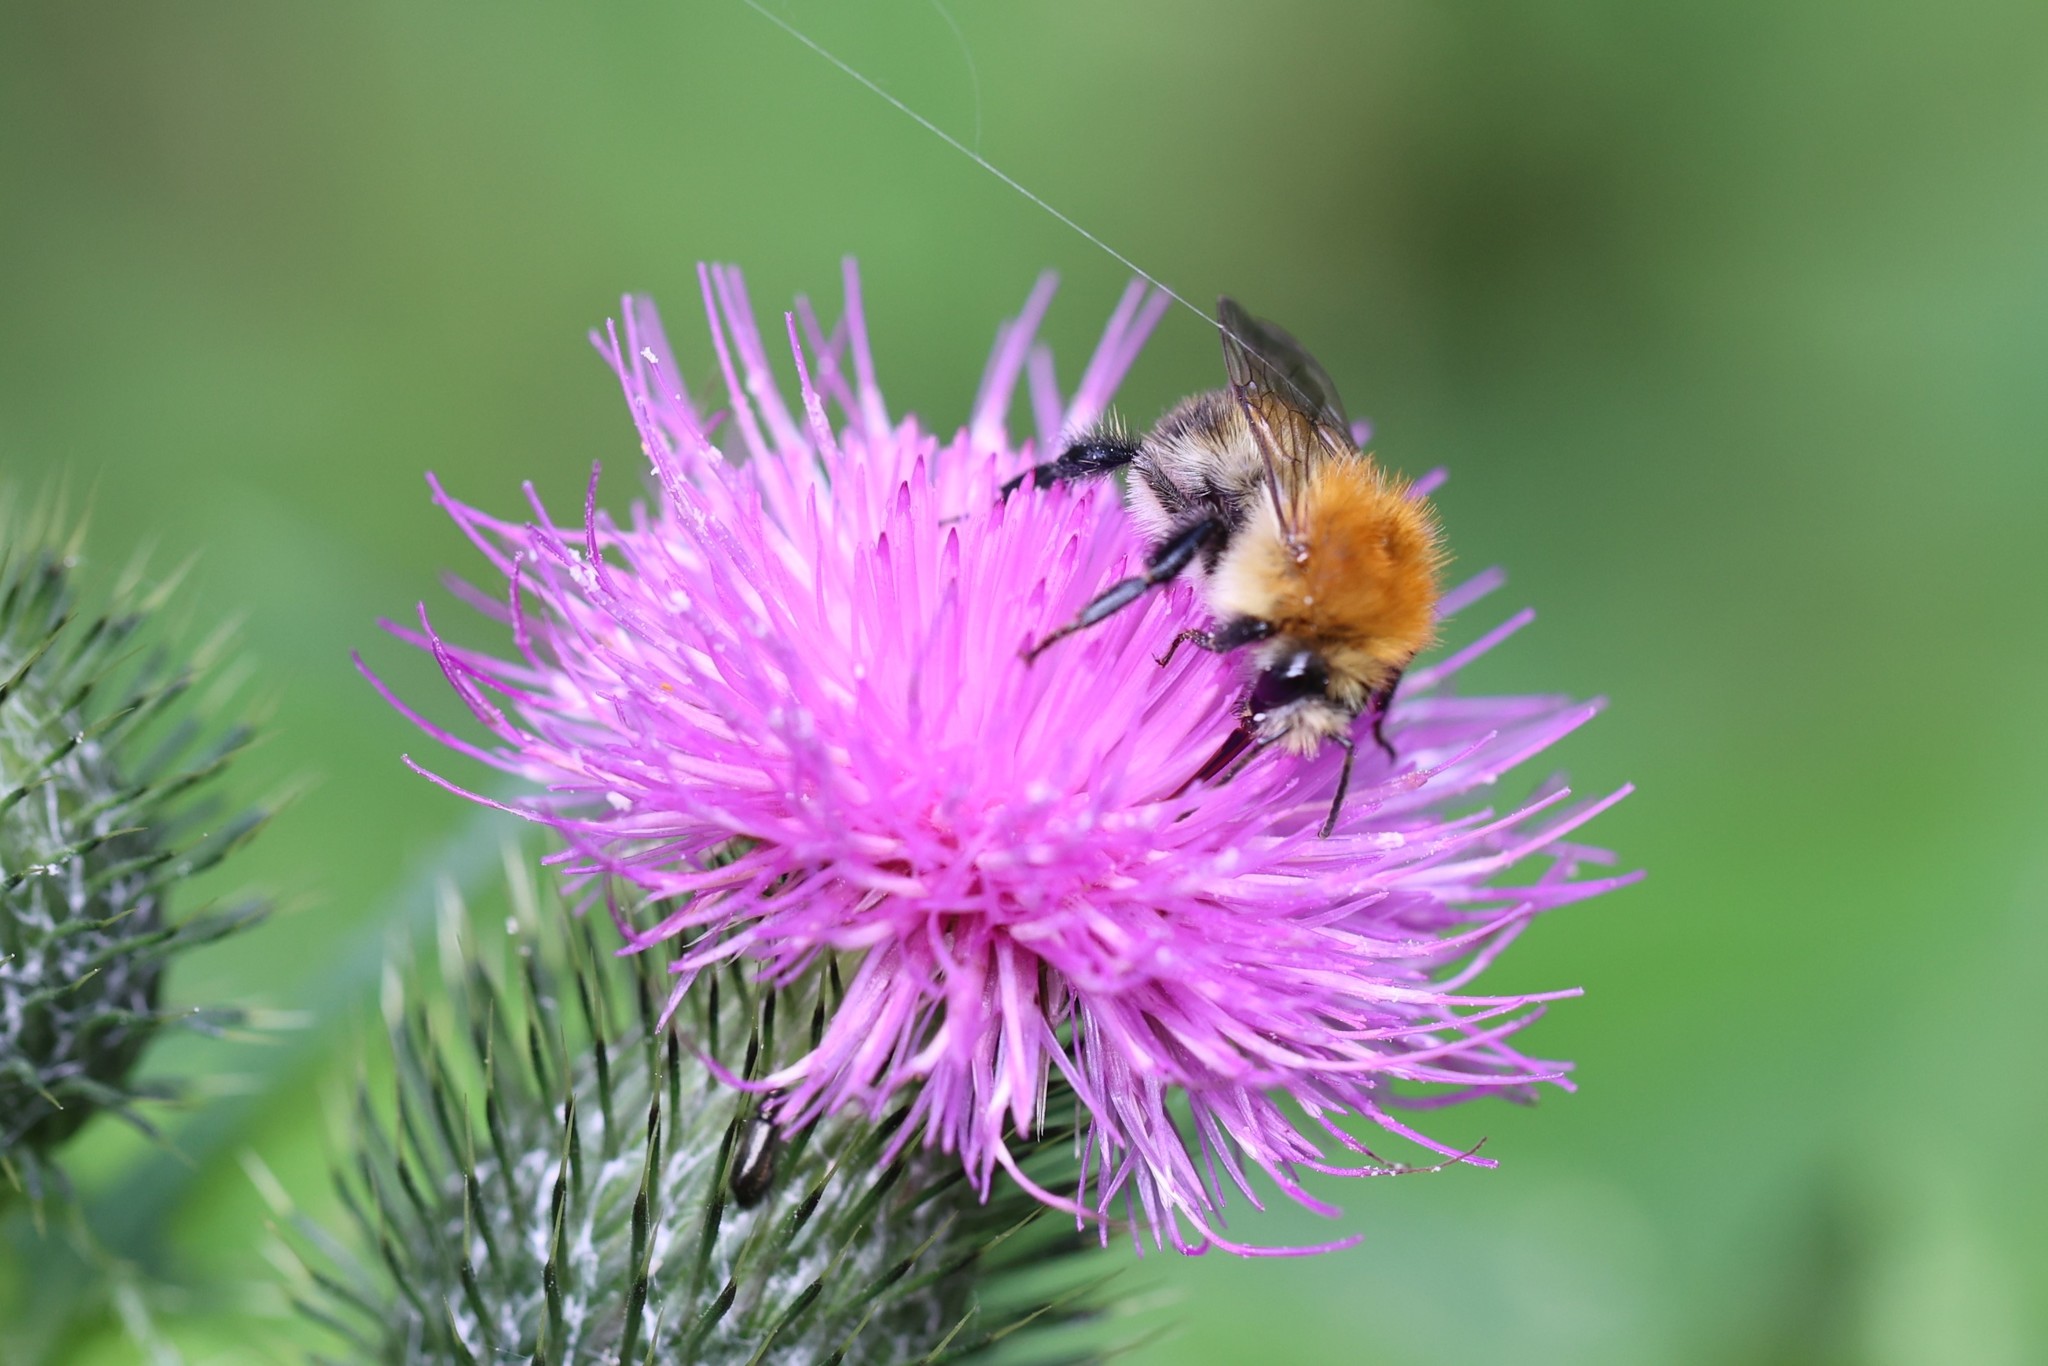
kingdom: Animalia
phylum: Arthropoda
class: Insecta
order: Hymenoptera
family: Apidae
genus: Bombus
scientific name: Bombus pascuorum
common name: Common carder bee
